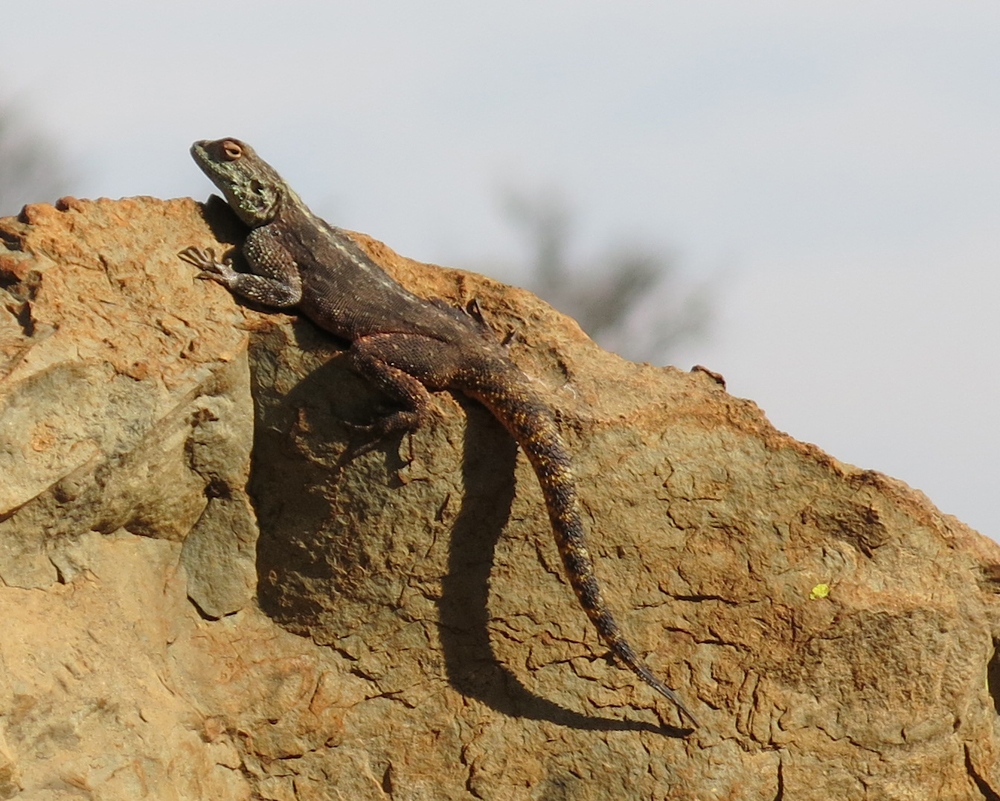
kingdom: Animalia
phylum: Chordata
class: Squamata
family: Agamidae
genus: Agama
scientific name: Agama atra
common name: Southern african rock agama
